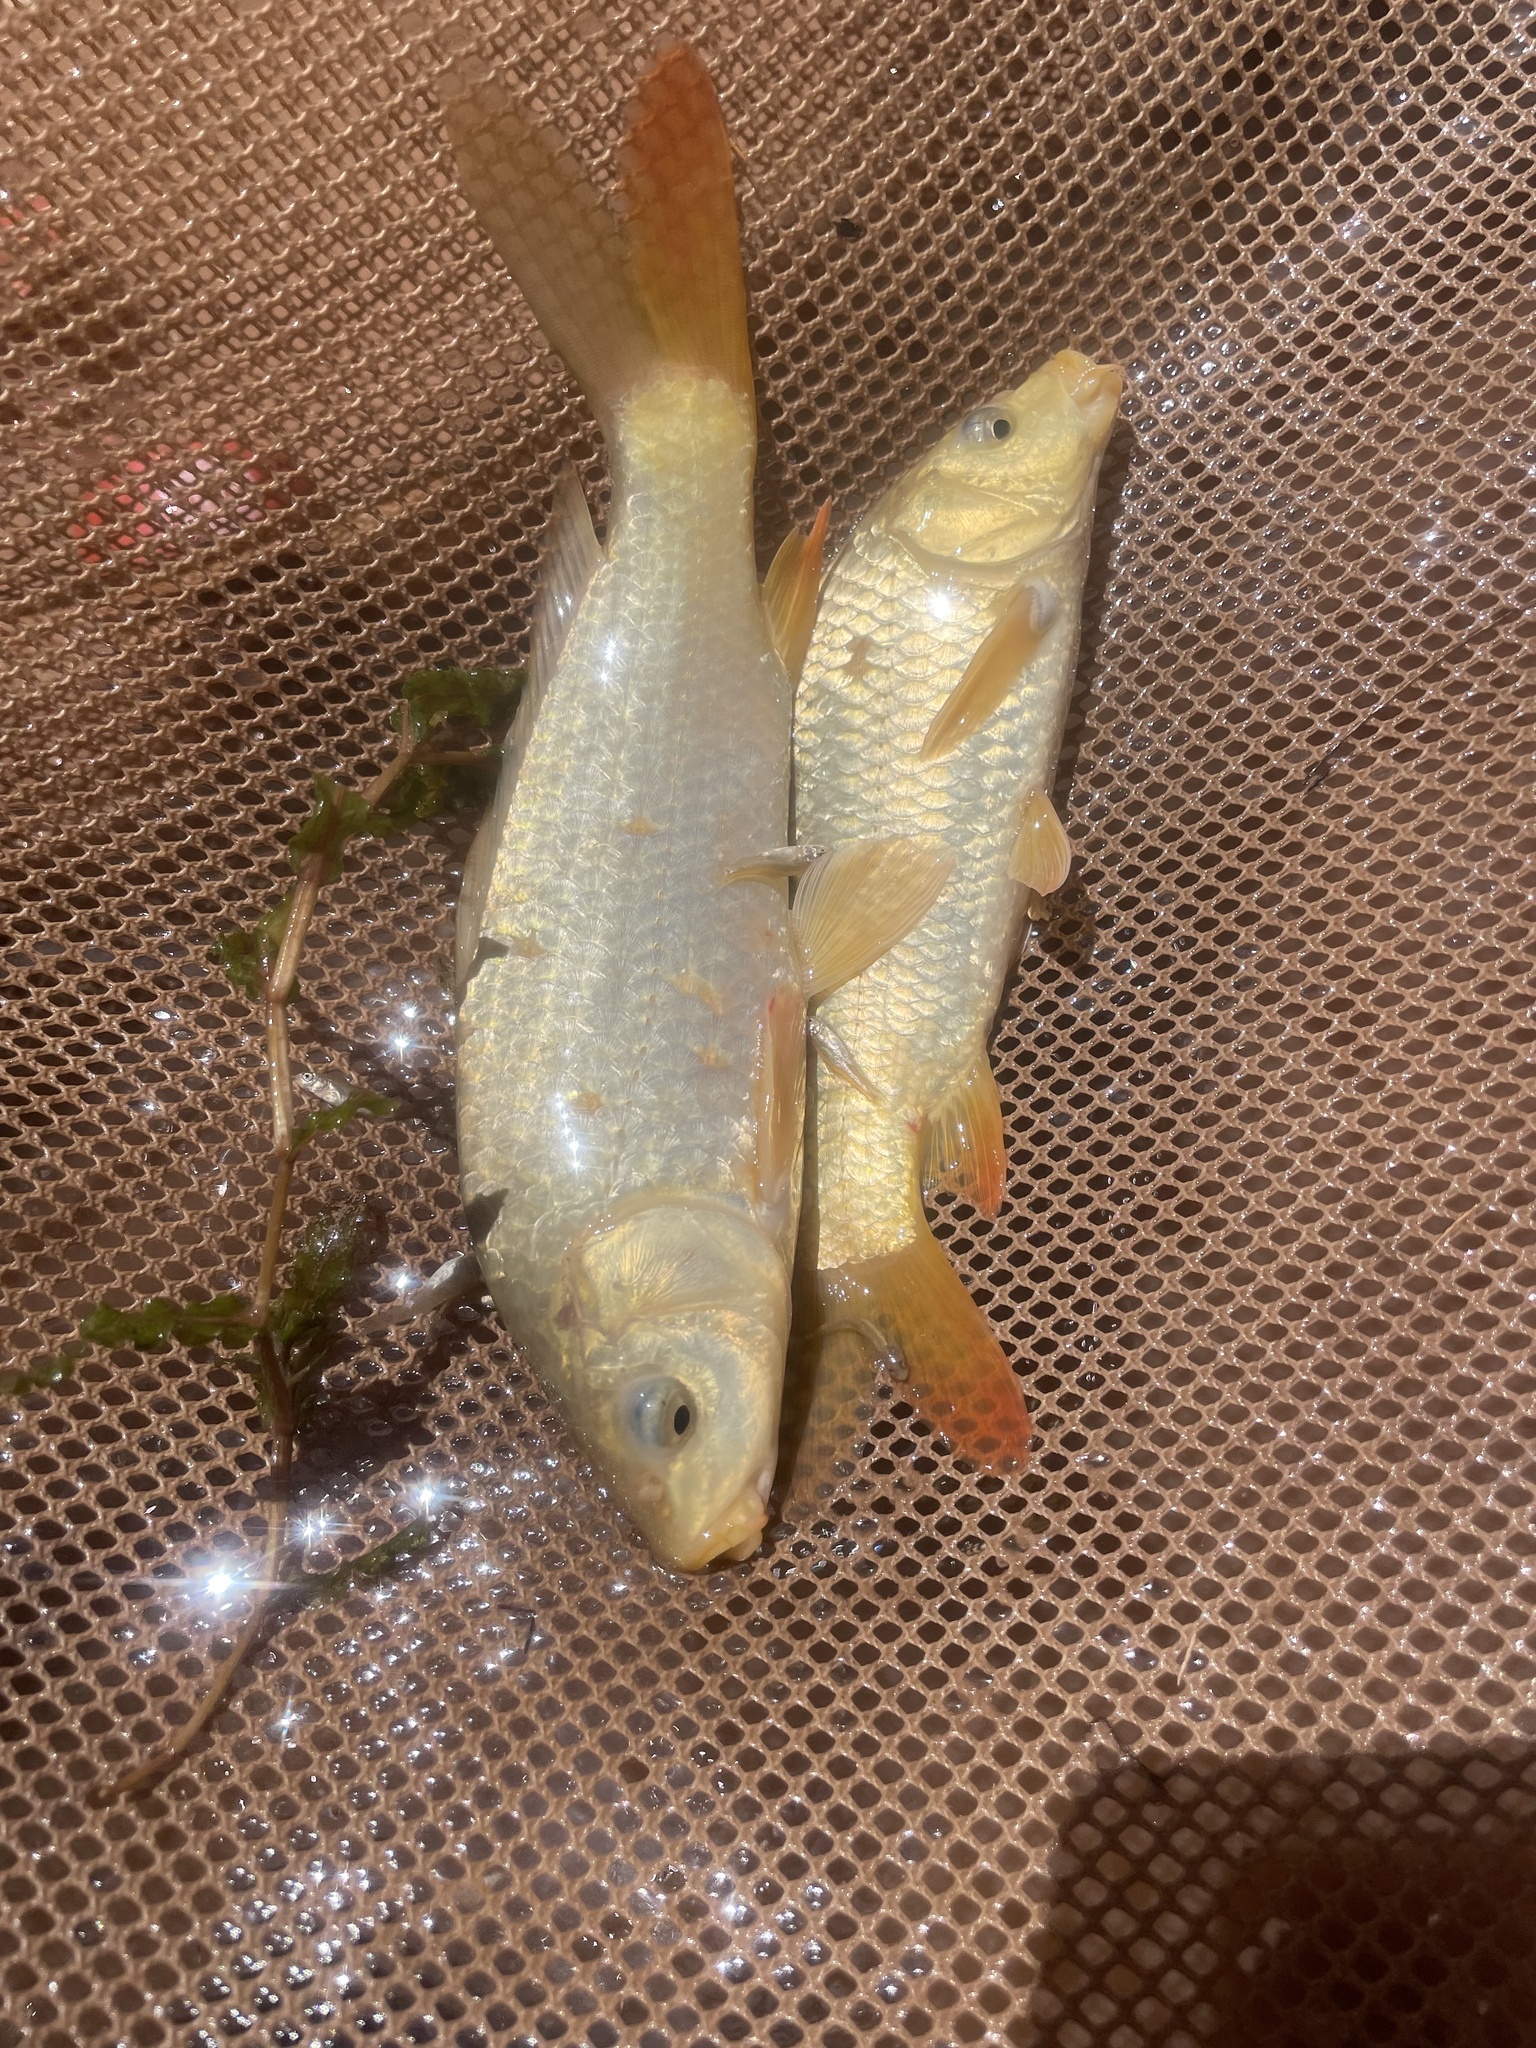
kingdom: Animalia
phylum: Chordata
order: Cypriniformes
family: Cyprinidae
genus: Cyprinus
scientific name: Cyprinus carpio
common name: Common carp
